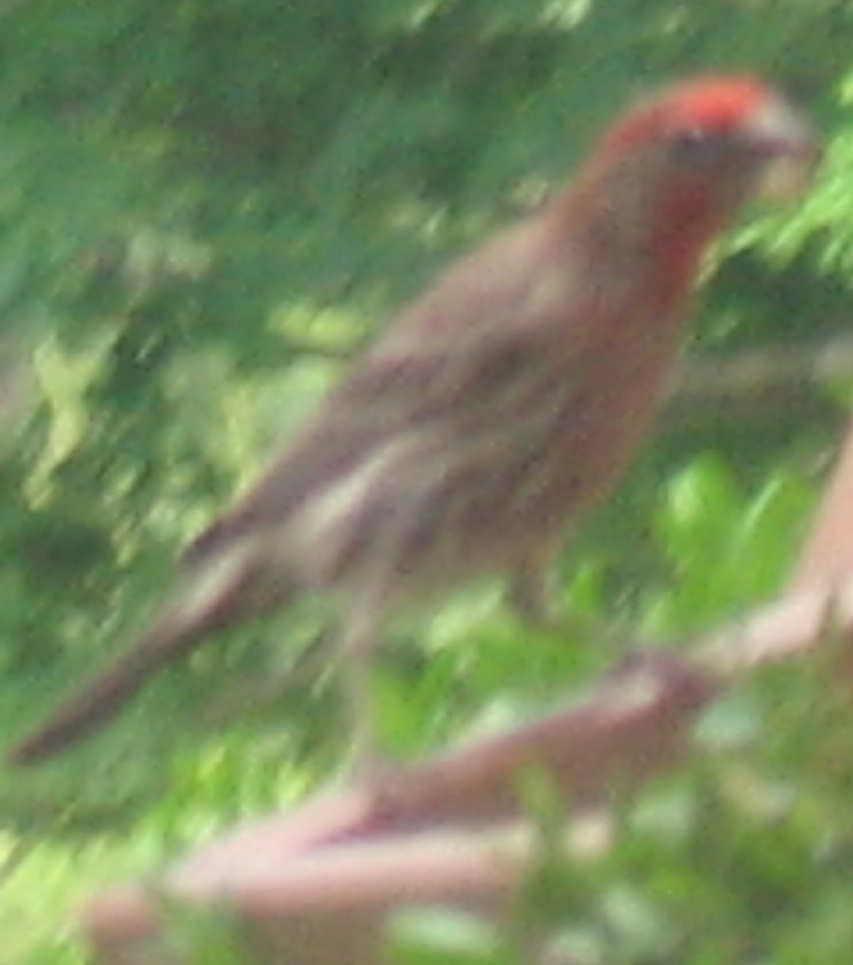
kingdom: Animalia
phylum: Chordata
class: Aves
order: Passeriformes
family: Fringillidae
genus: Haemorhous
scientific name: Haemorhous mexicanus
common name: House finch
